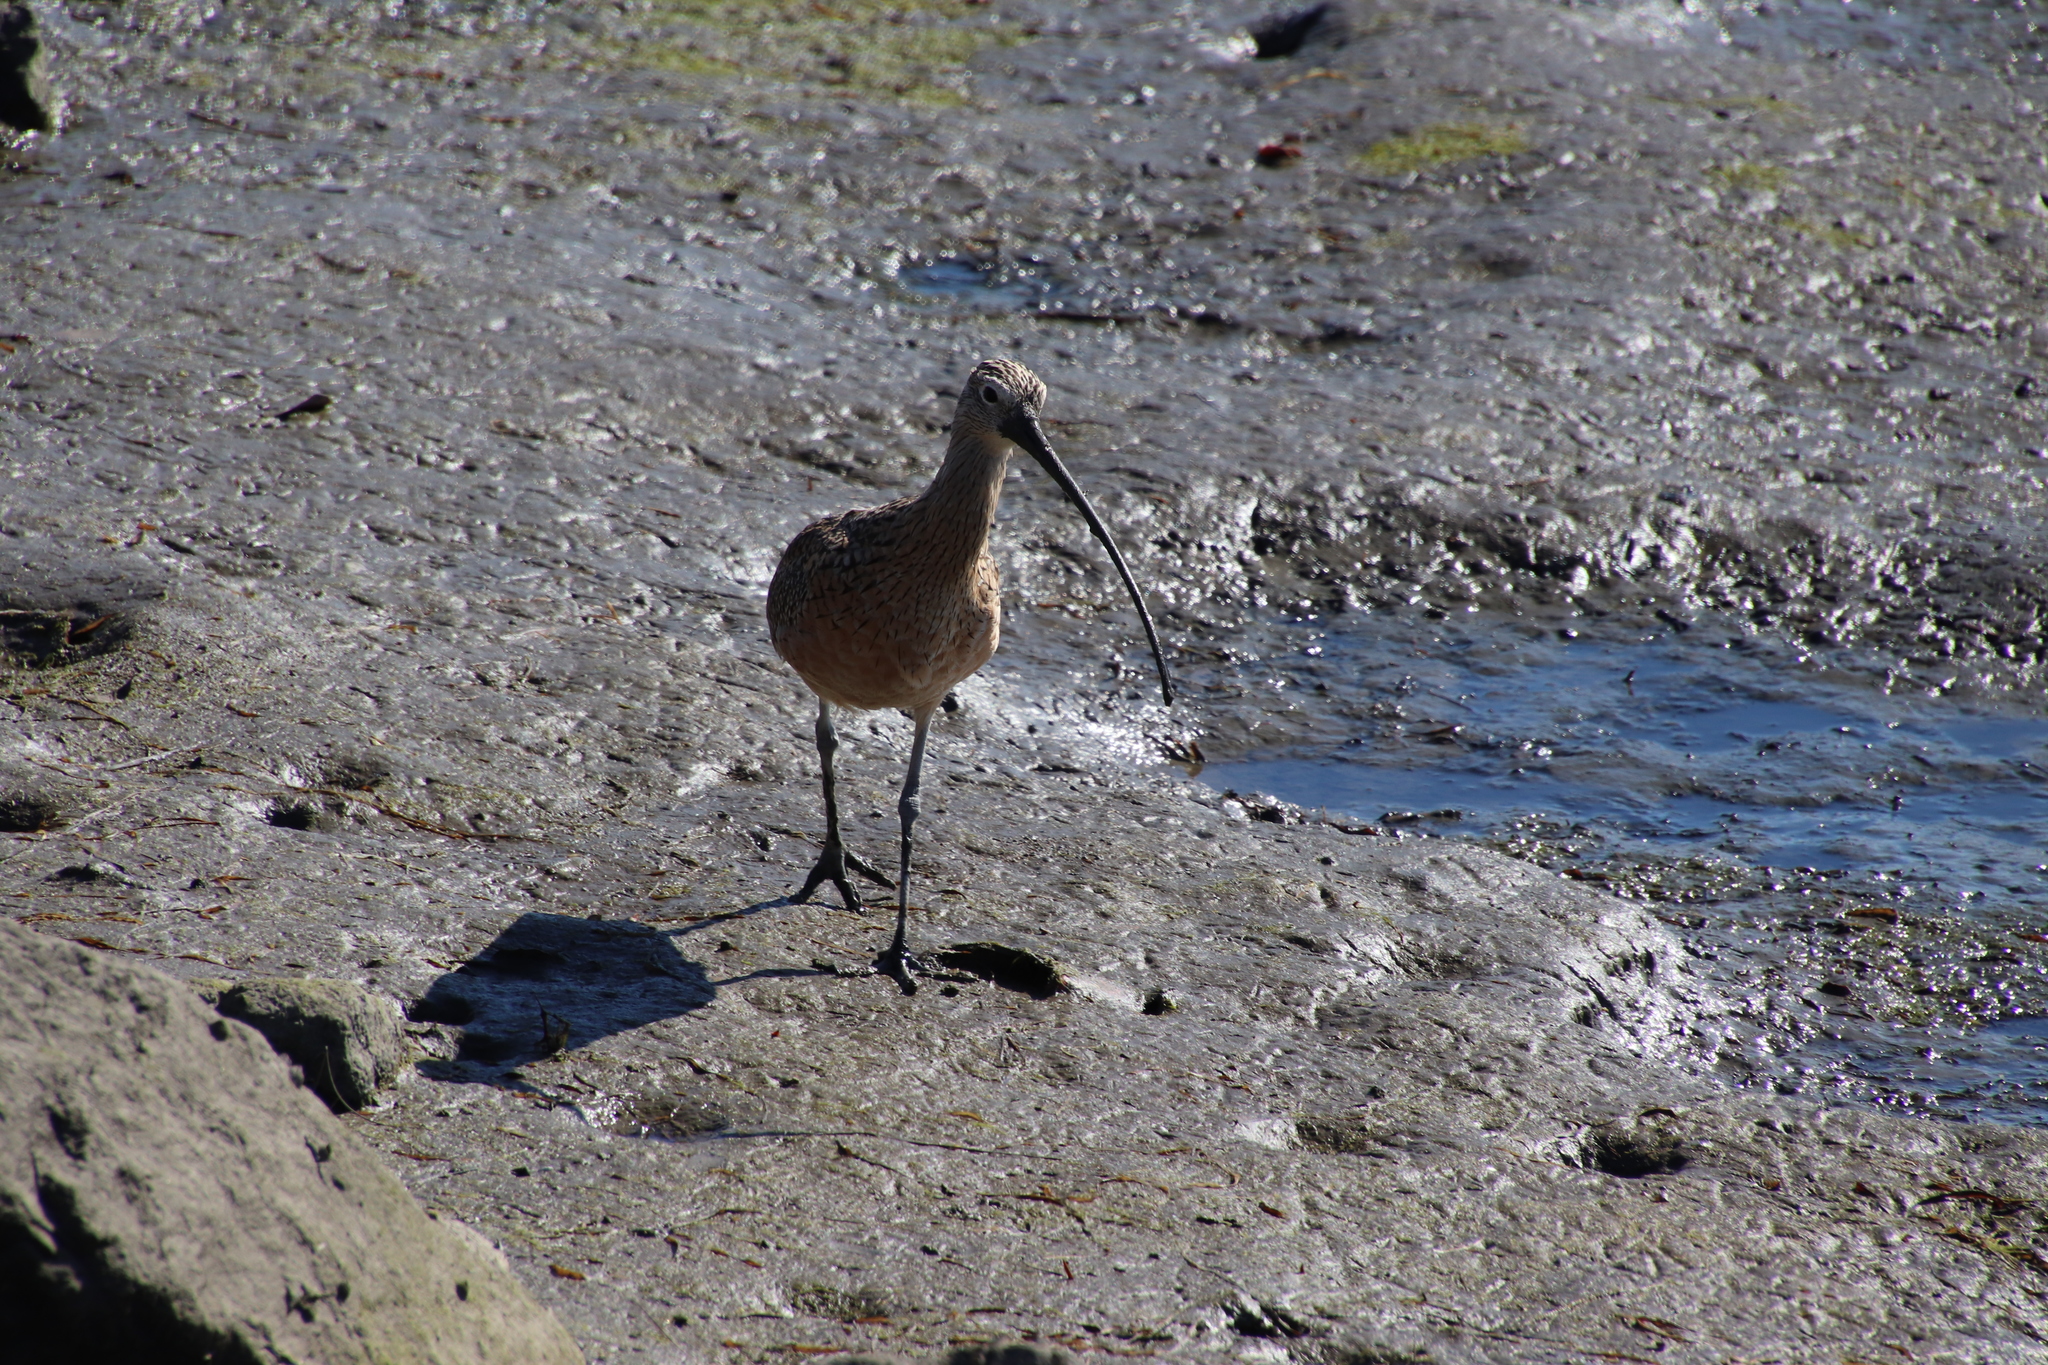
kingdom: Animalia
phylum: Chordata
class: Aves
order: Charadriiformes
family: Scolopacidae
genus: Numenius
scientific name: Numenius americanus
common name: Long-billed curlew
